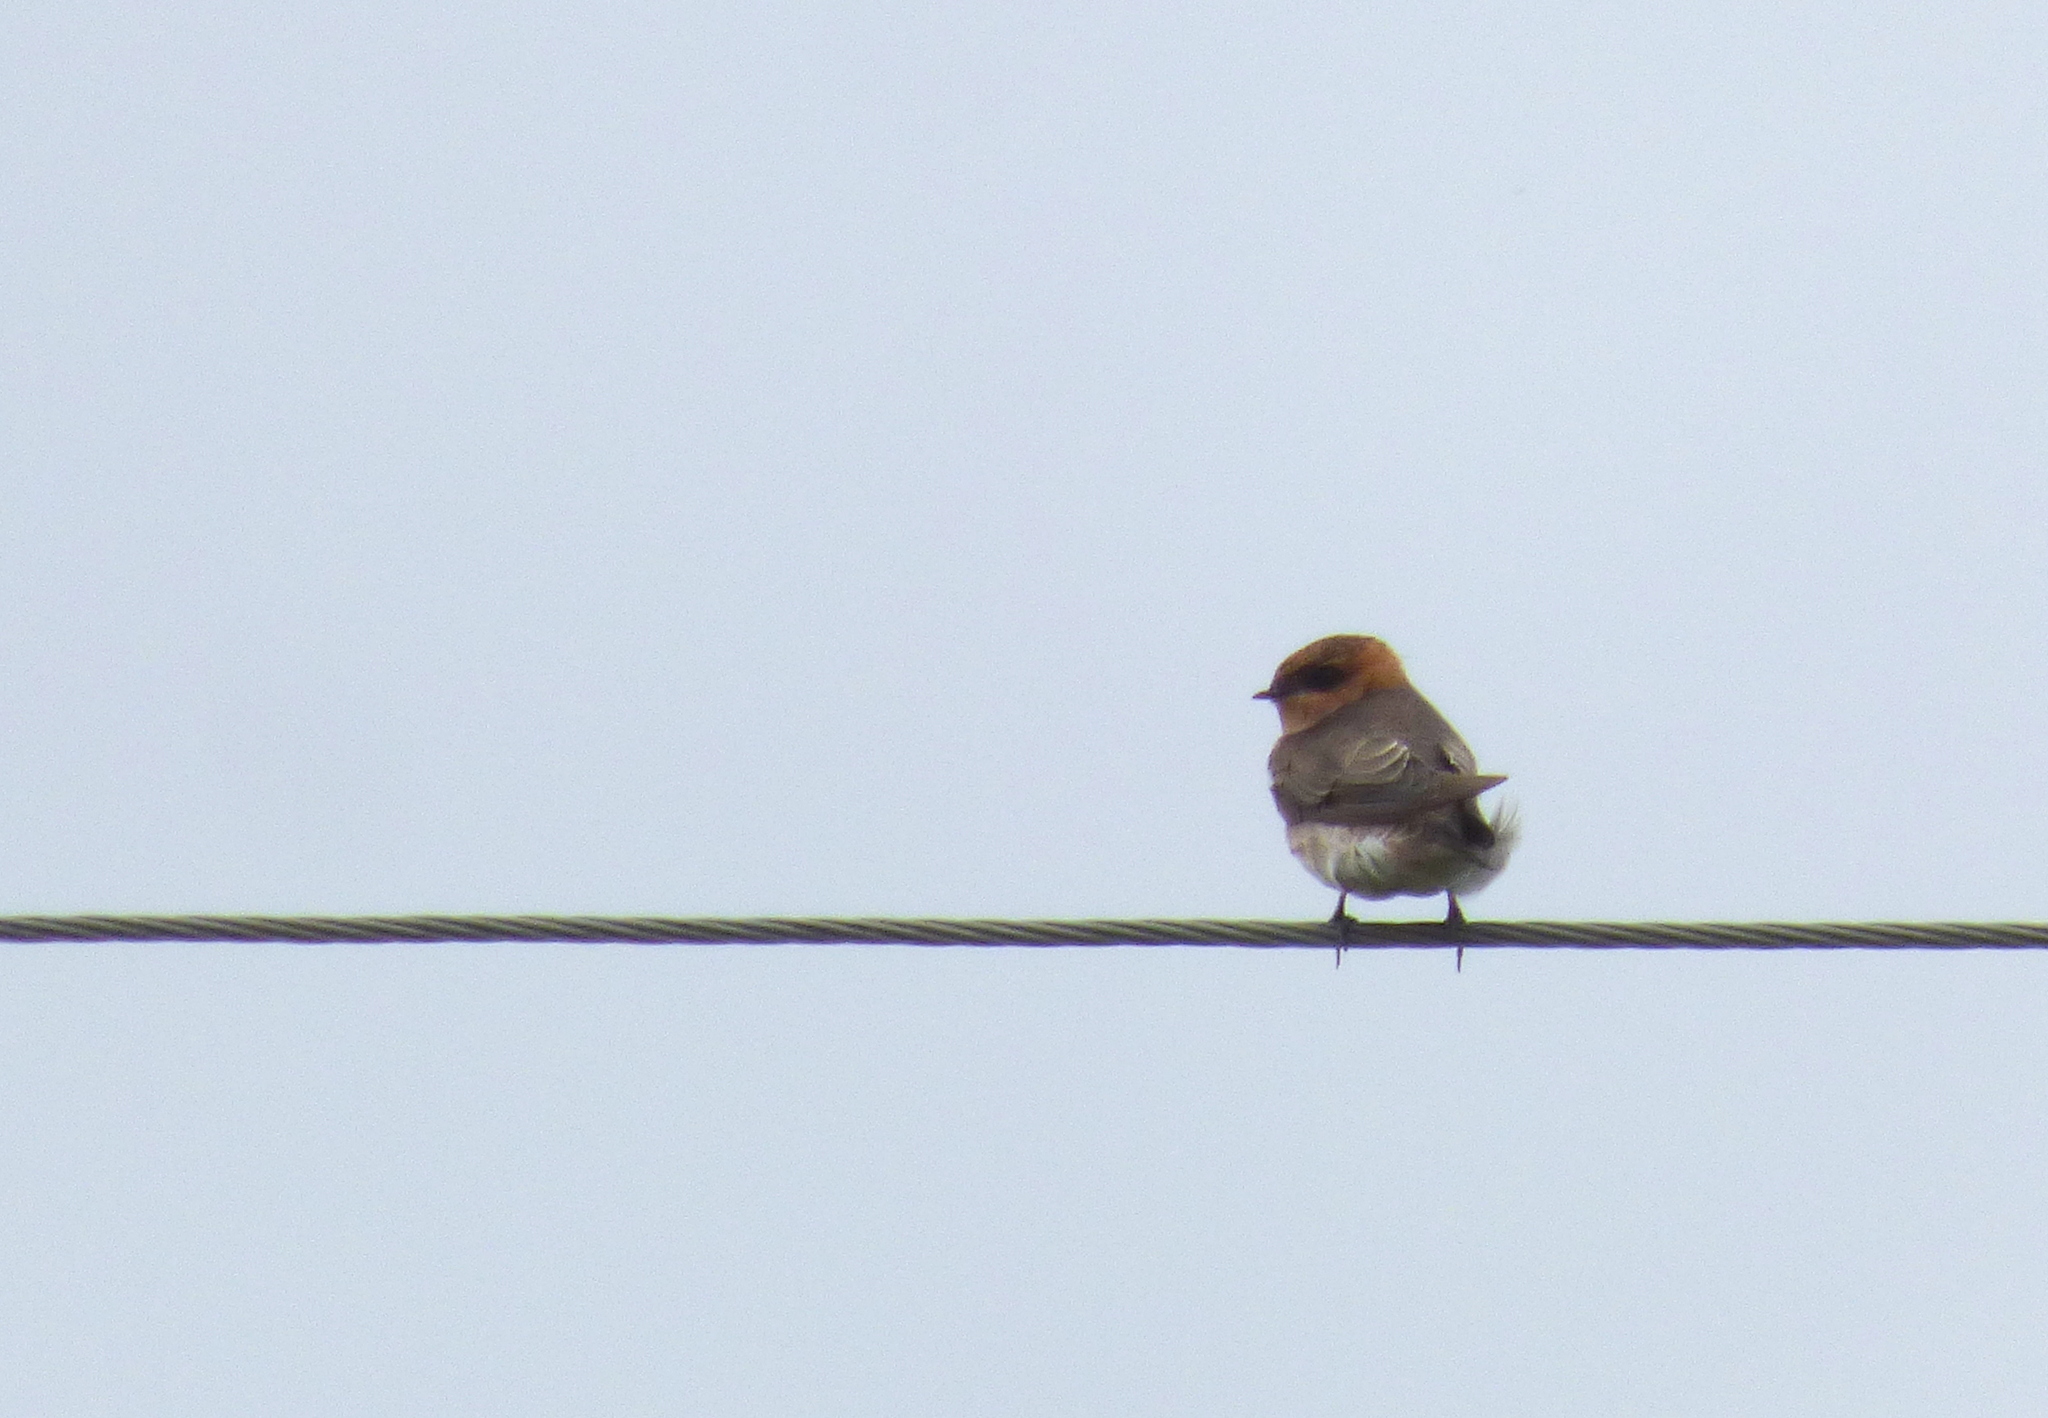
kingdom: Animalia
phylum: Chordata
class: Aves
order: Passeriformes
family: Hirundinidae
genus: Alopochelidon
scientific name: Alopochelidon fucata
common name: Tawny-headed swallow
